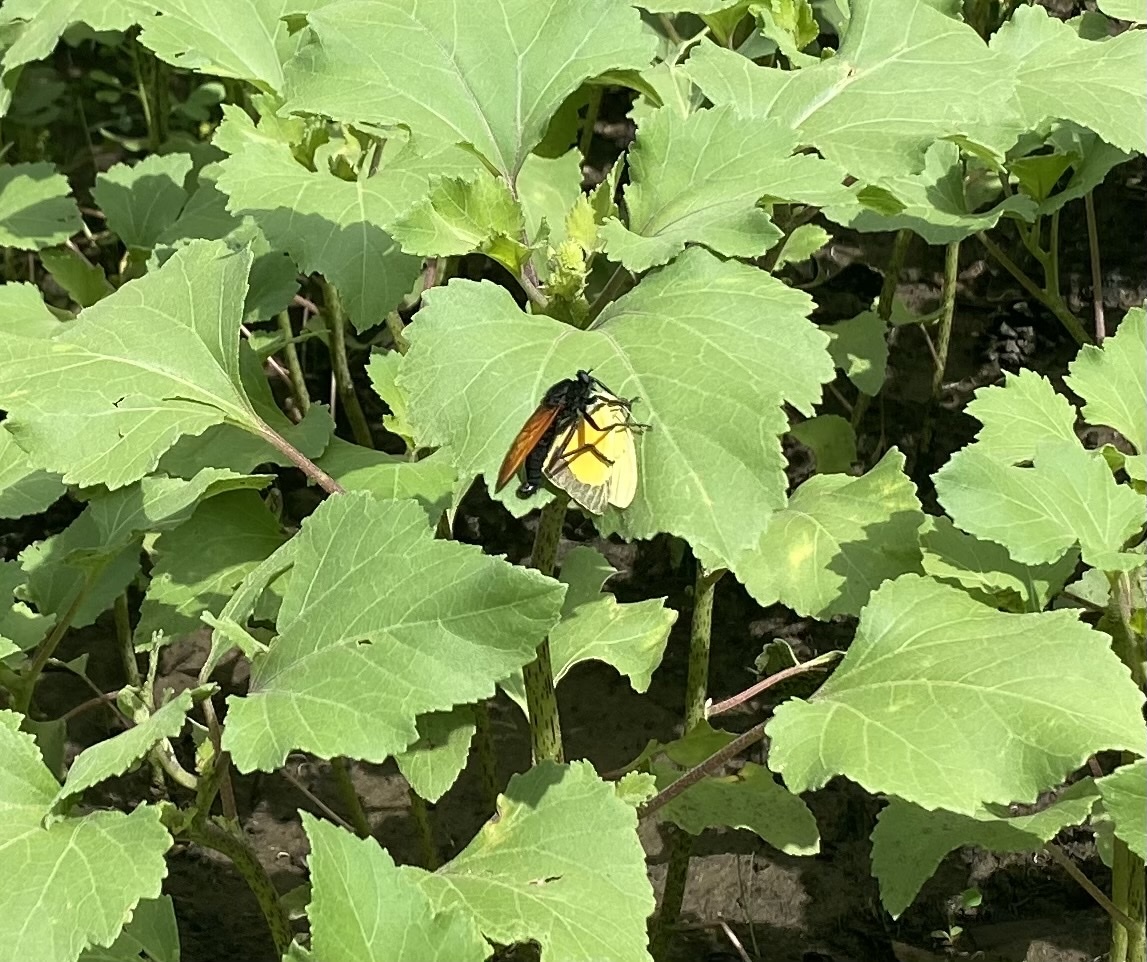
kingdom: Animalia
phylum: Arthropoda
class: Insecta
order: Diptera
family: Asilidae
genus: Wilcoxius
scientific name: Wilcoxius mydas
